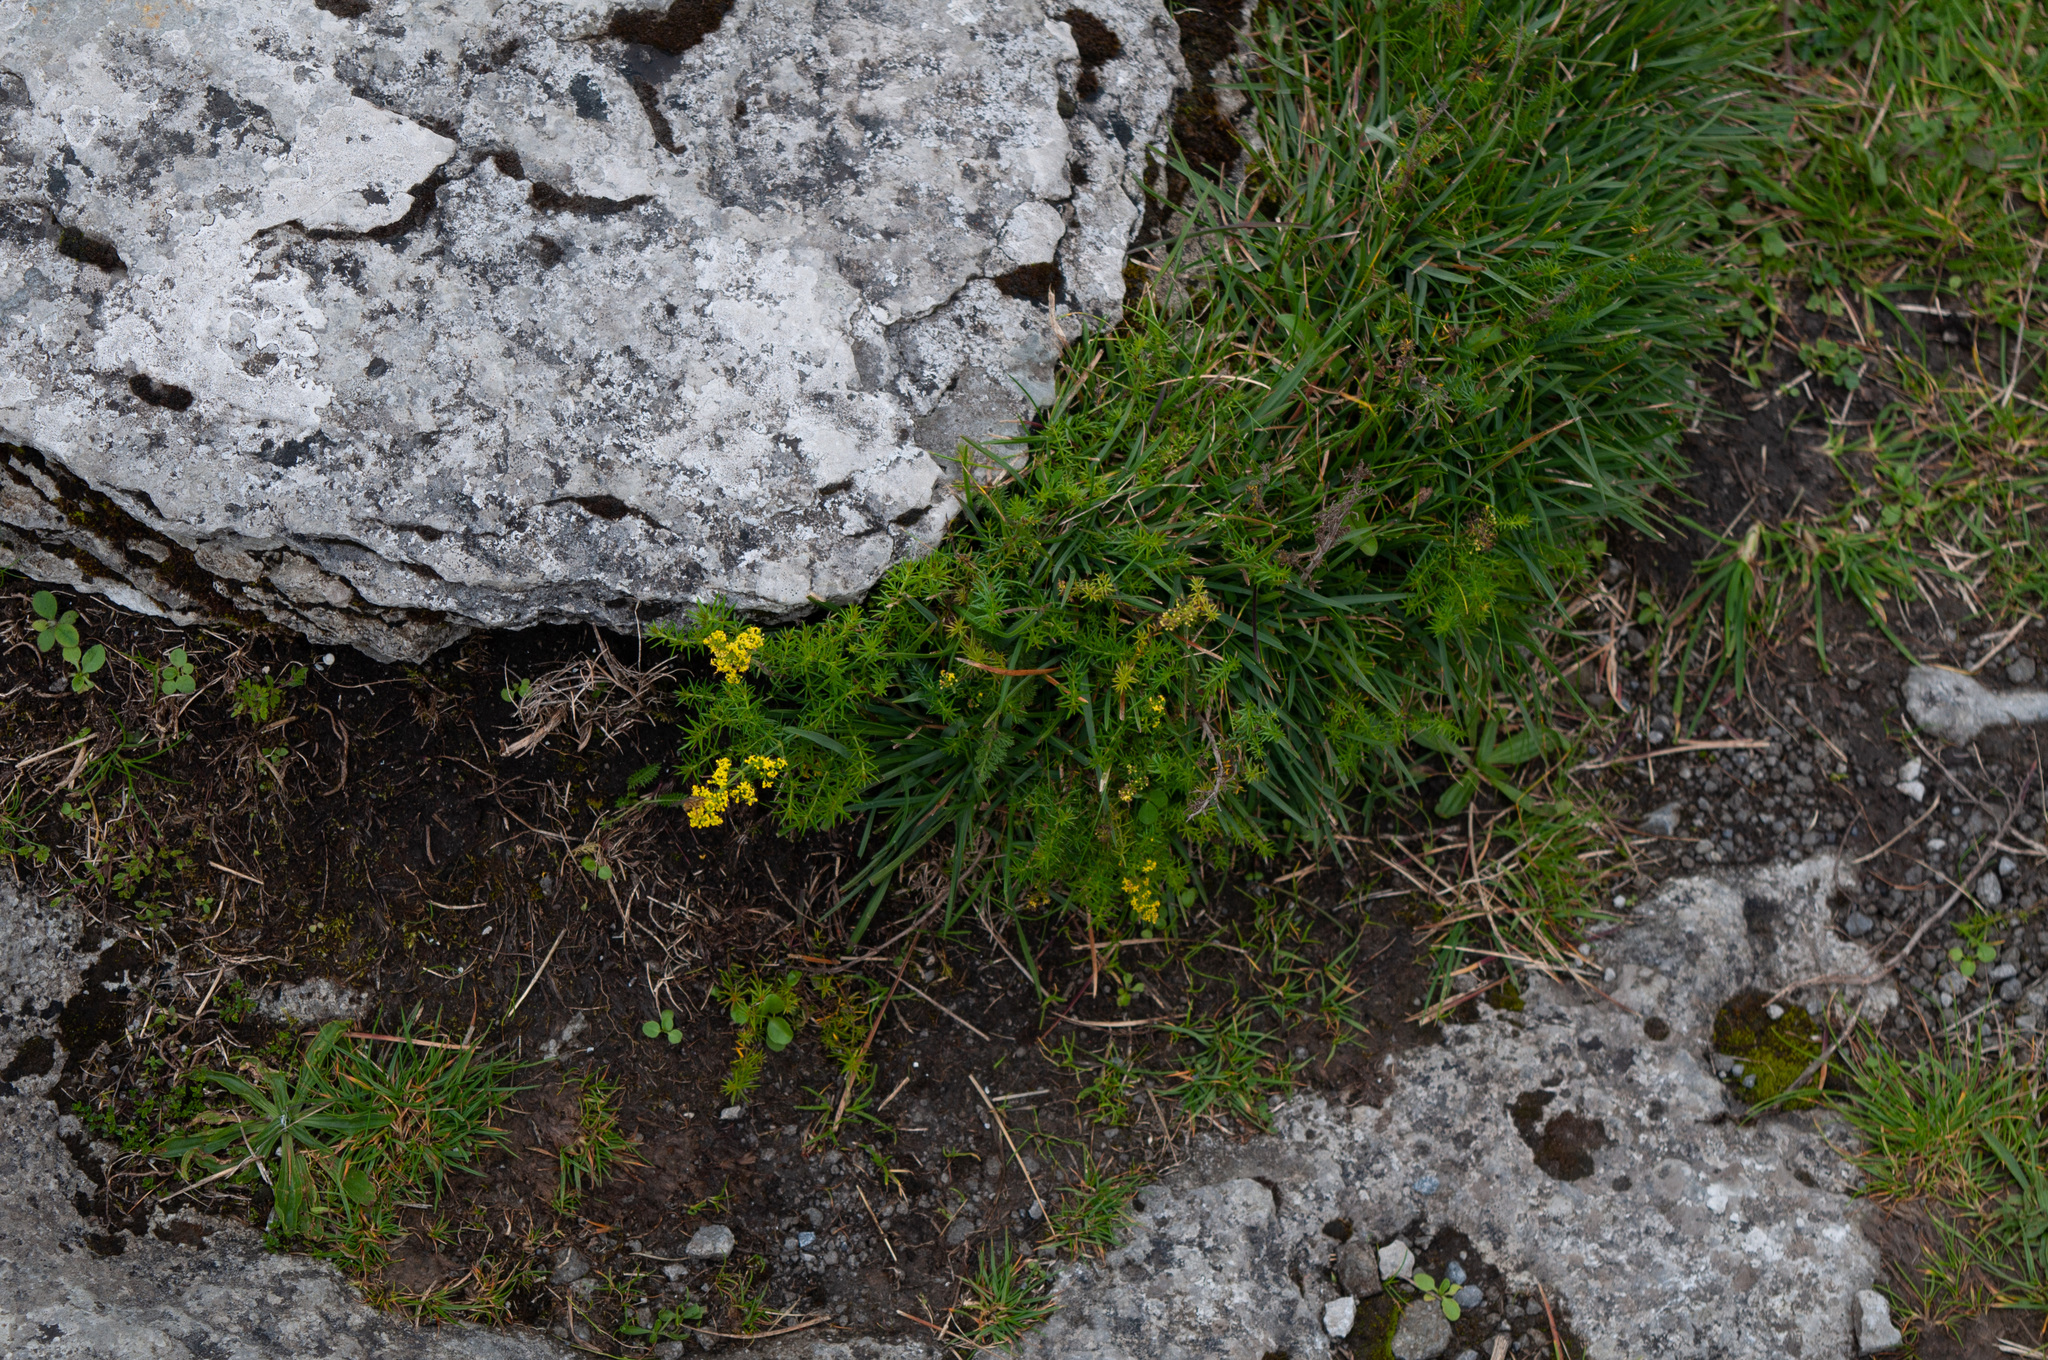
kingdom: Plantae
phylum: Tracheophyta
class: Magnoliopsida
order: Gentianales
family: Rubiaceae
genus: Galium
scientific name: Galium verum
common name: Lady's bedstraw
